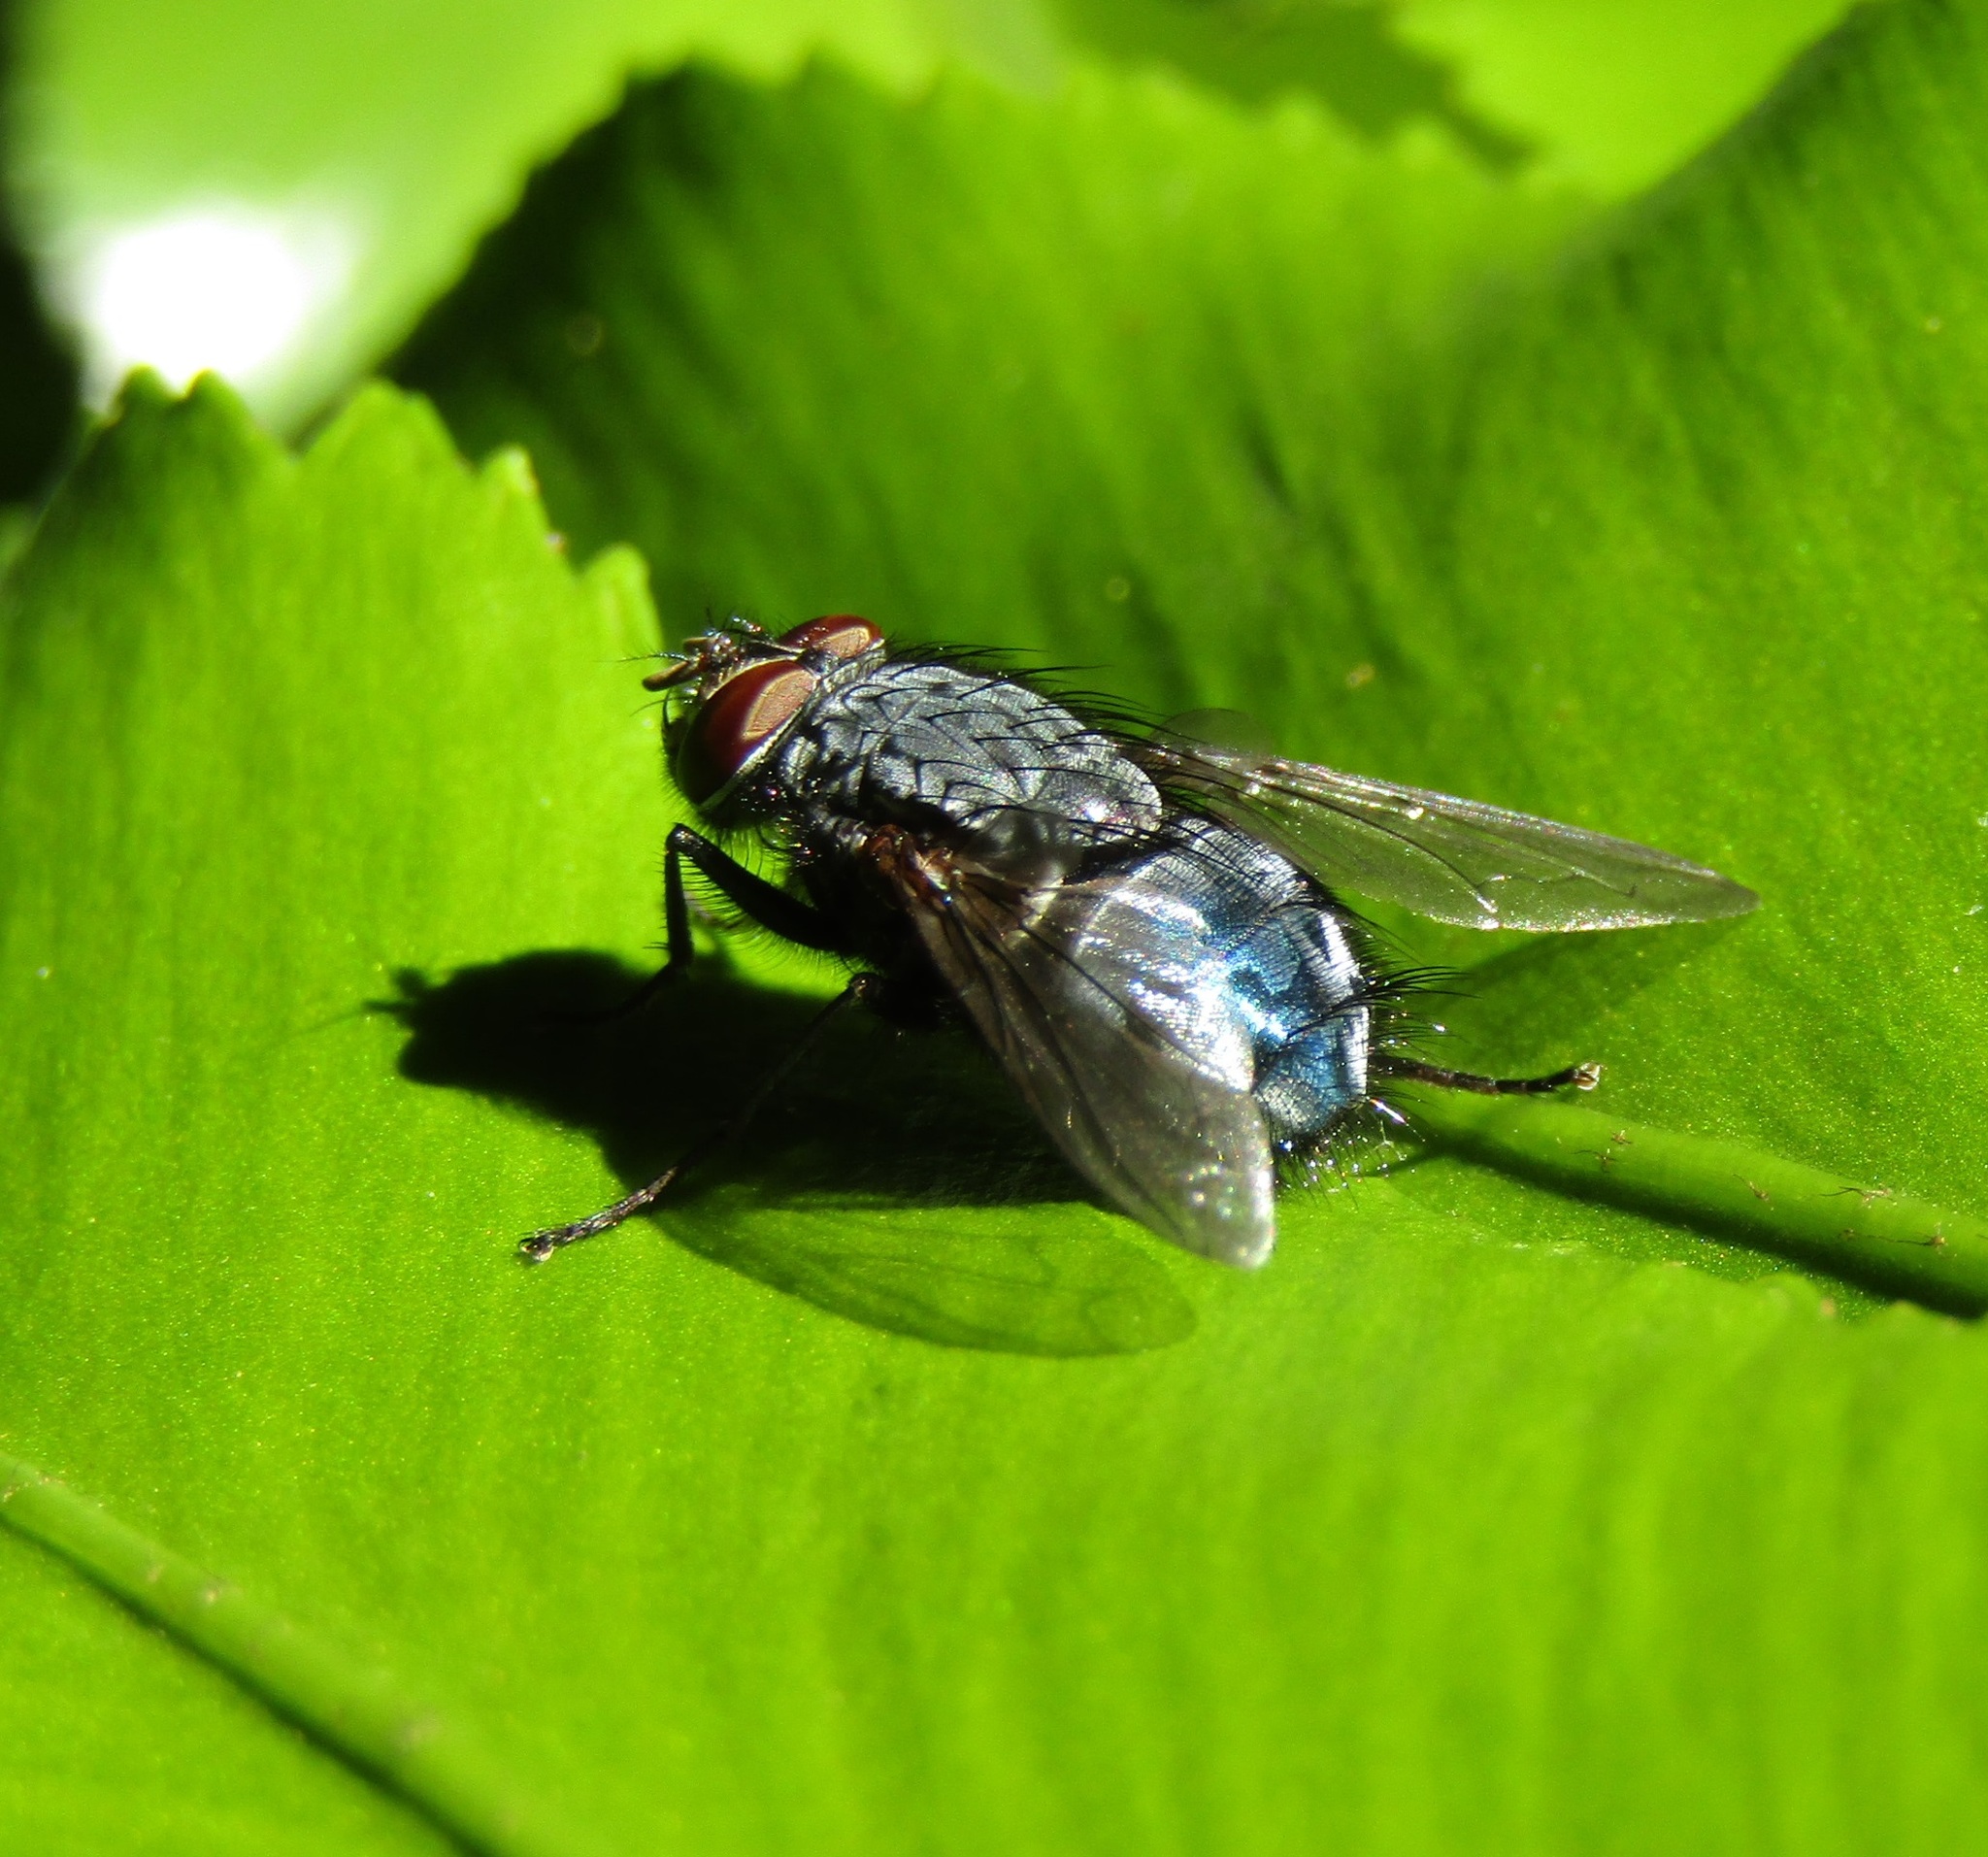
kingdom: Animalia
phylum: Arthropoda
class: Insecta
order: Diptera
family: Calliphoridae
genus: Calliphora
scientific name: Calliphora vicina
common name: Common blow flie
